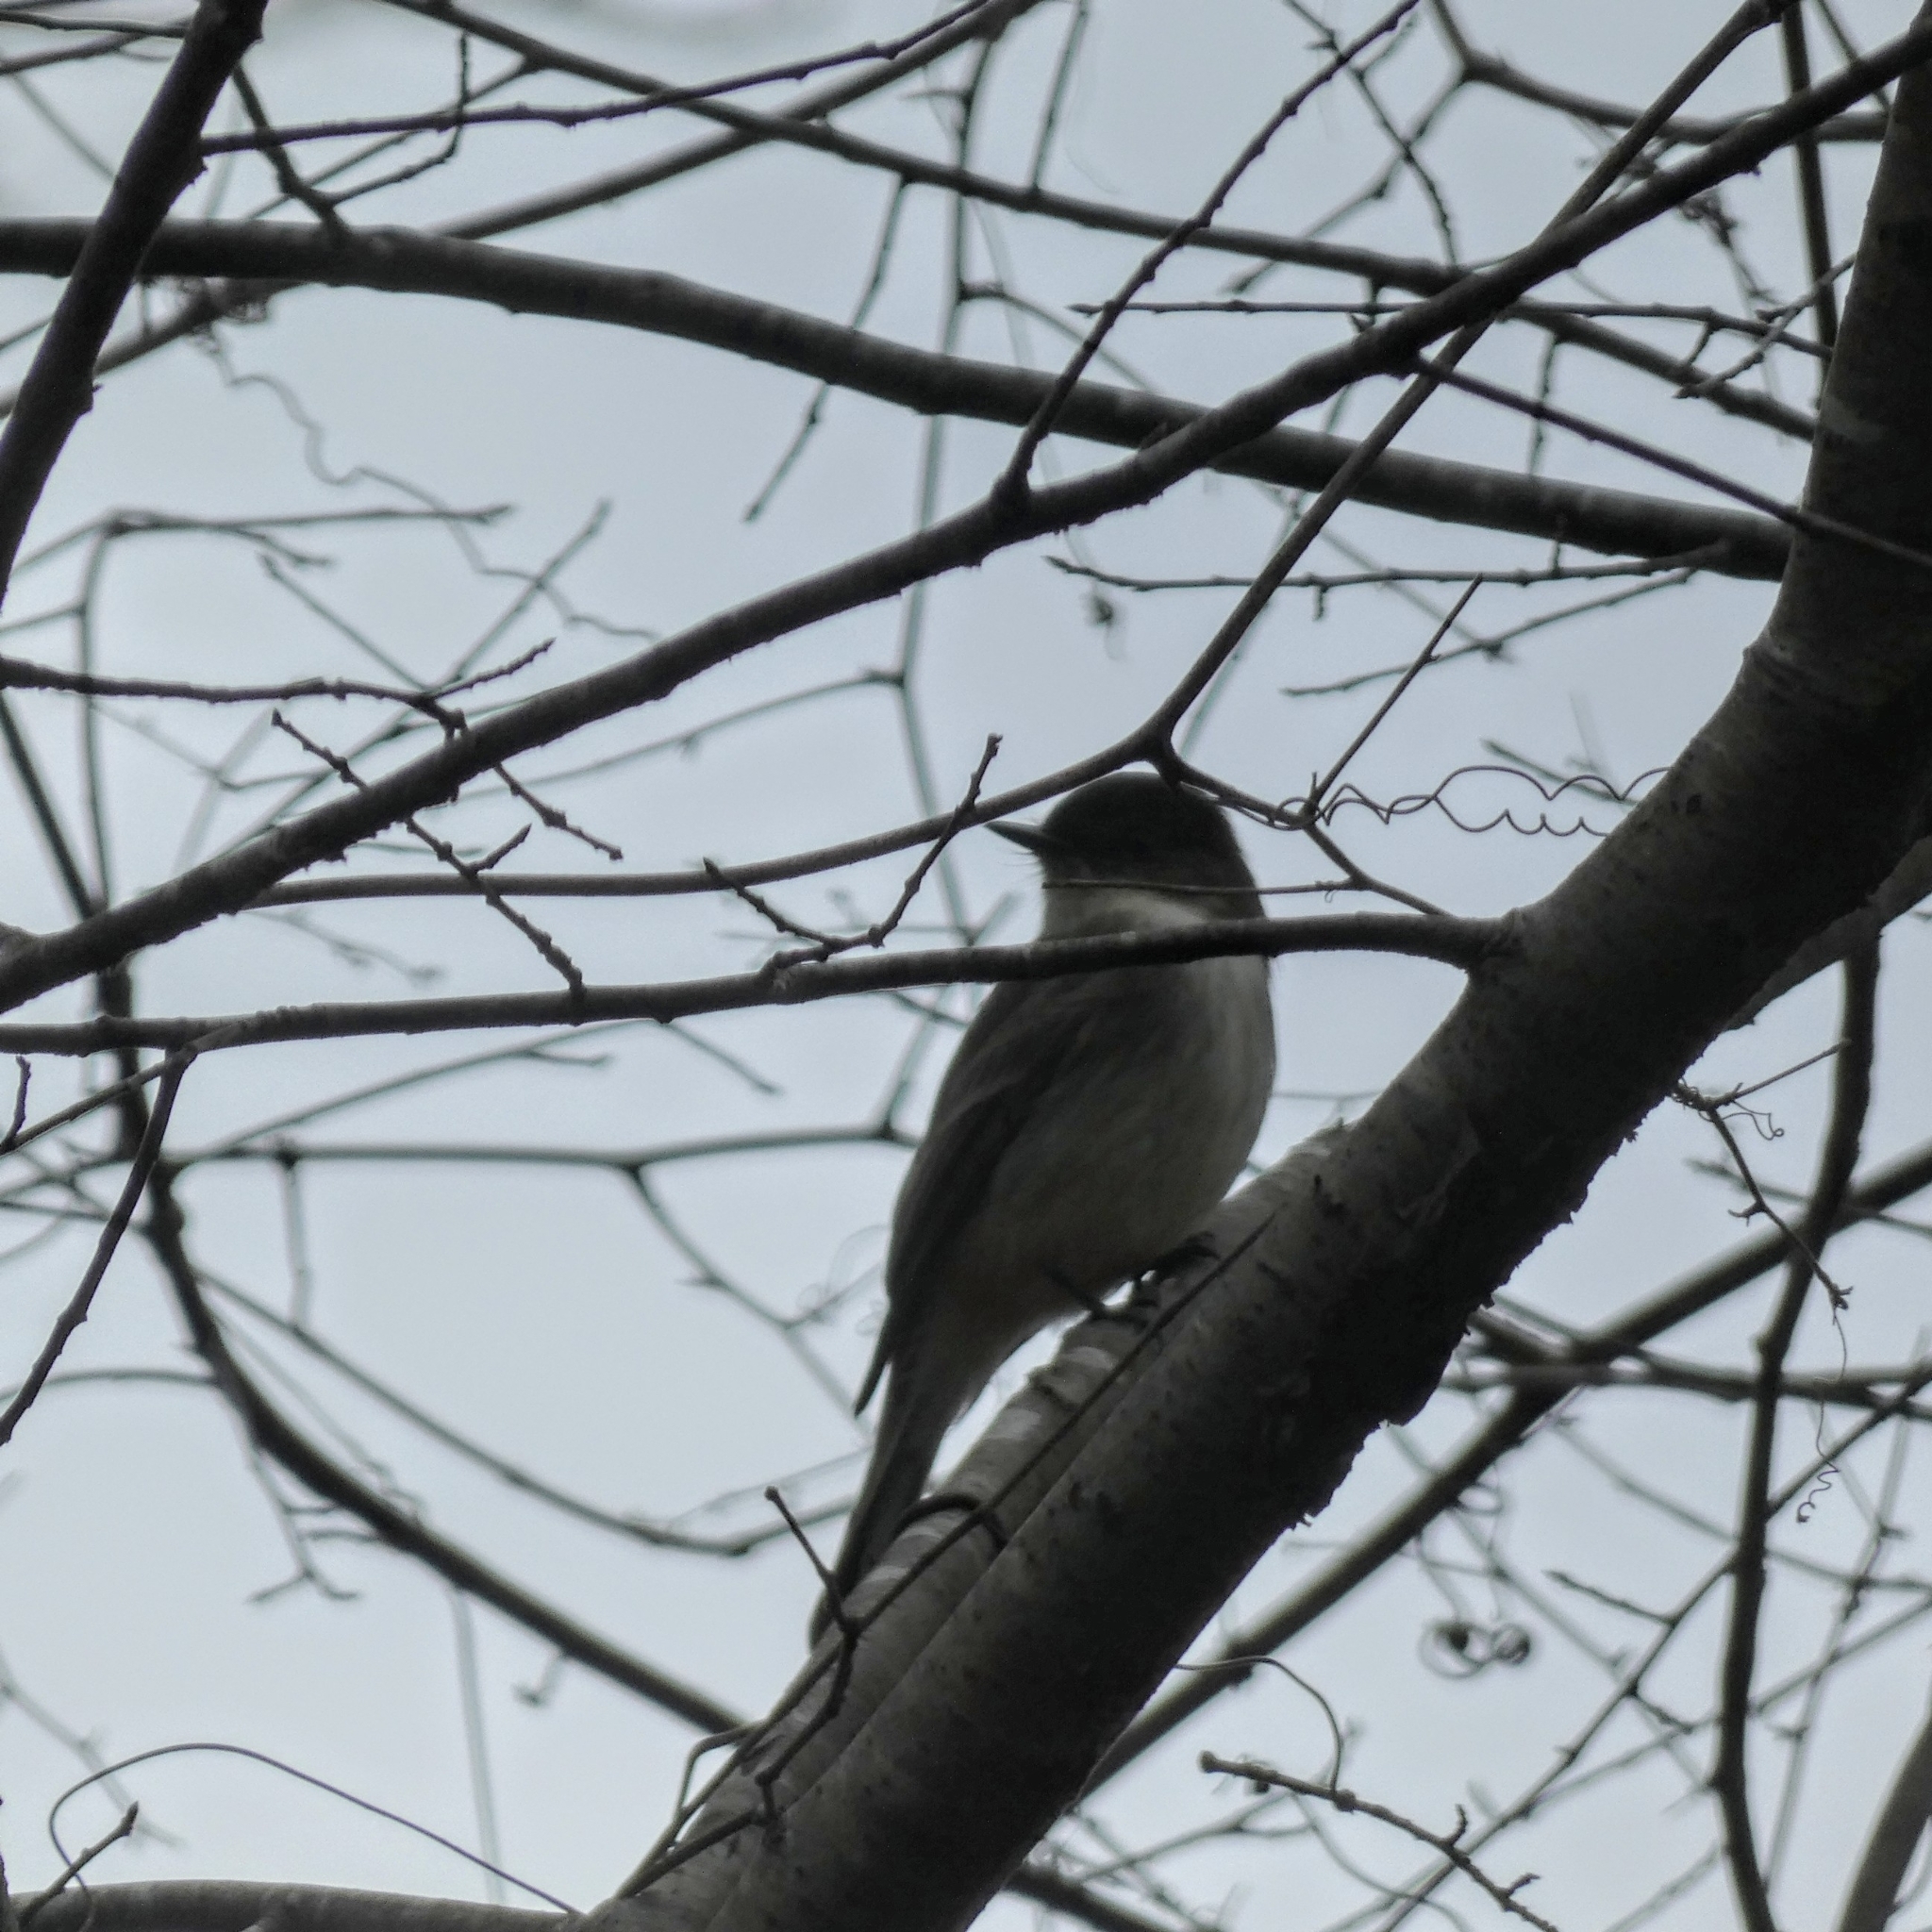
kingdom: Animalia
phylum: Chordata
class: Aves
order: Passeriformes
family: Tyrannidae
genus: Sayornis
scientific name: Sayornis phoebe
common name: Eastern phoebe
